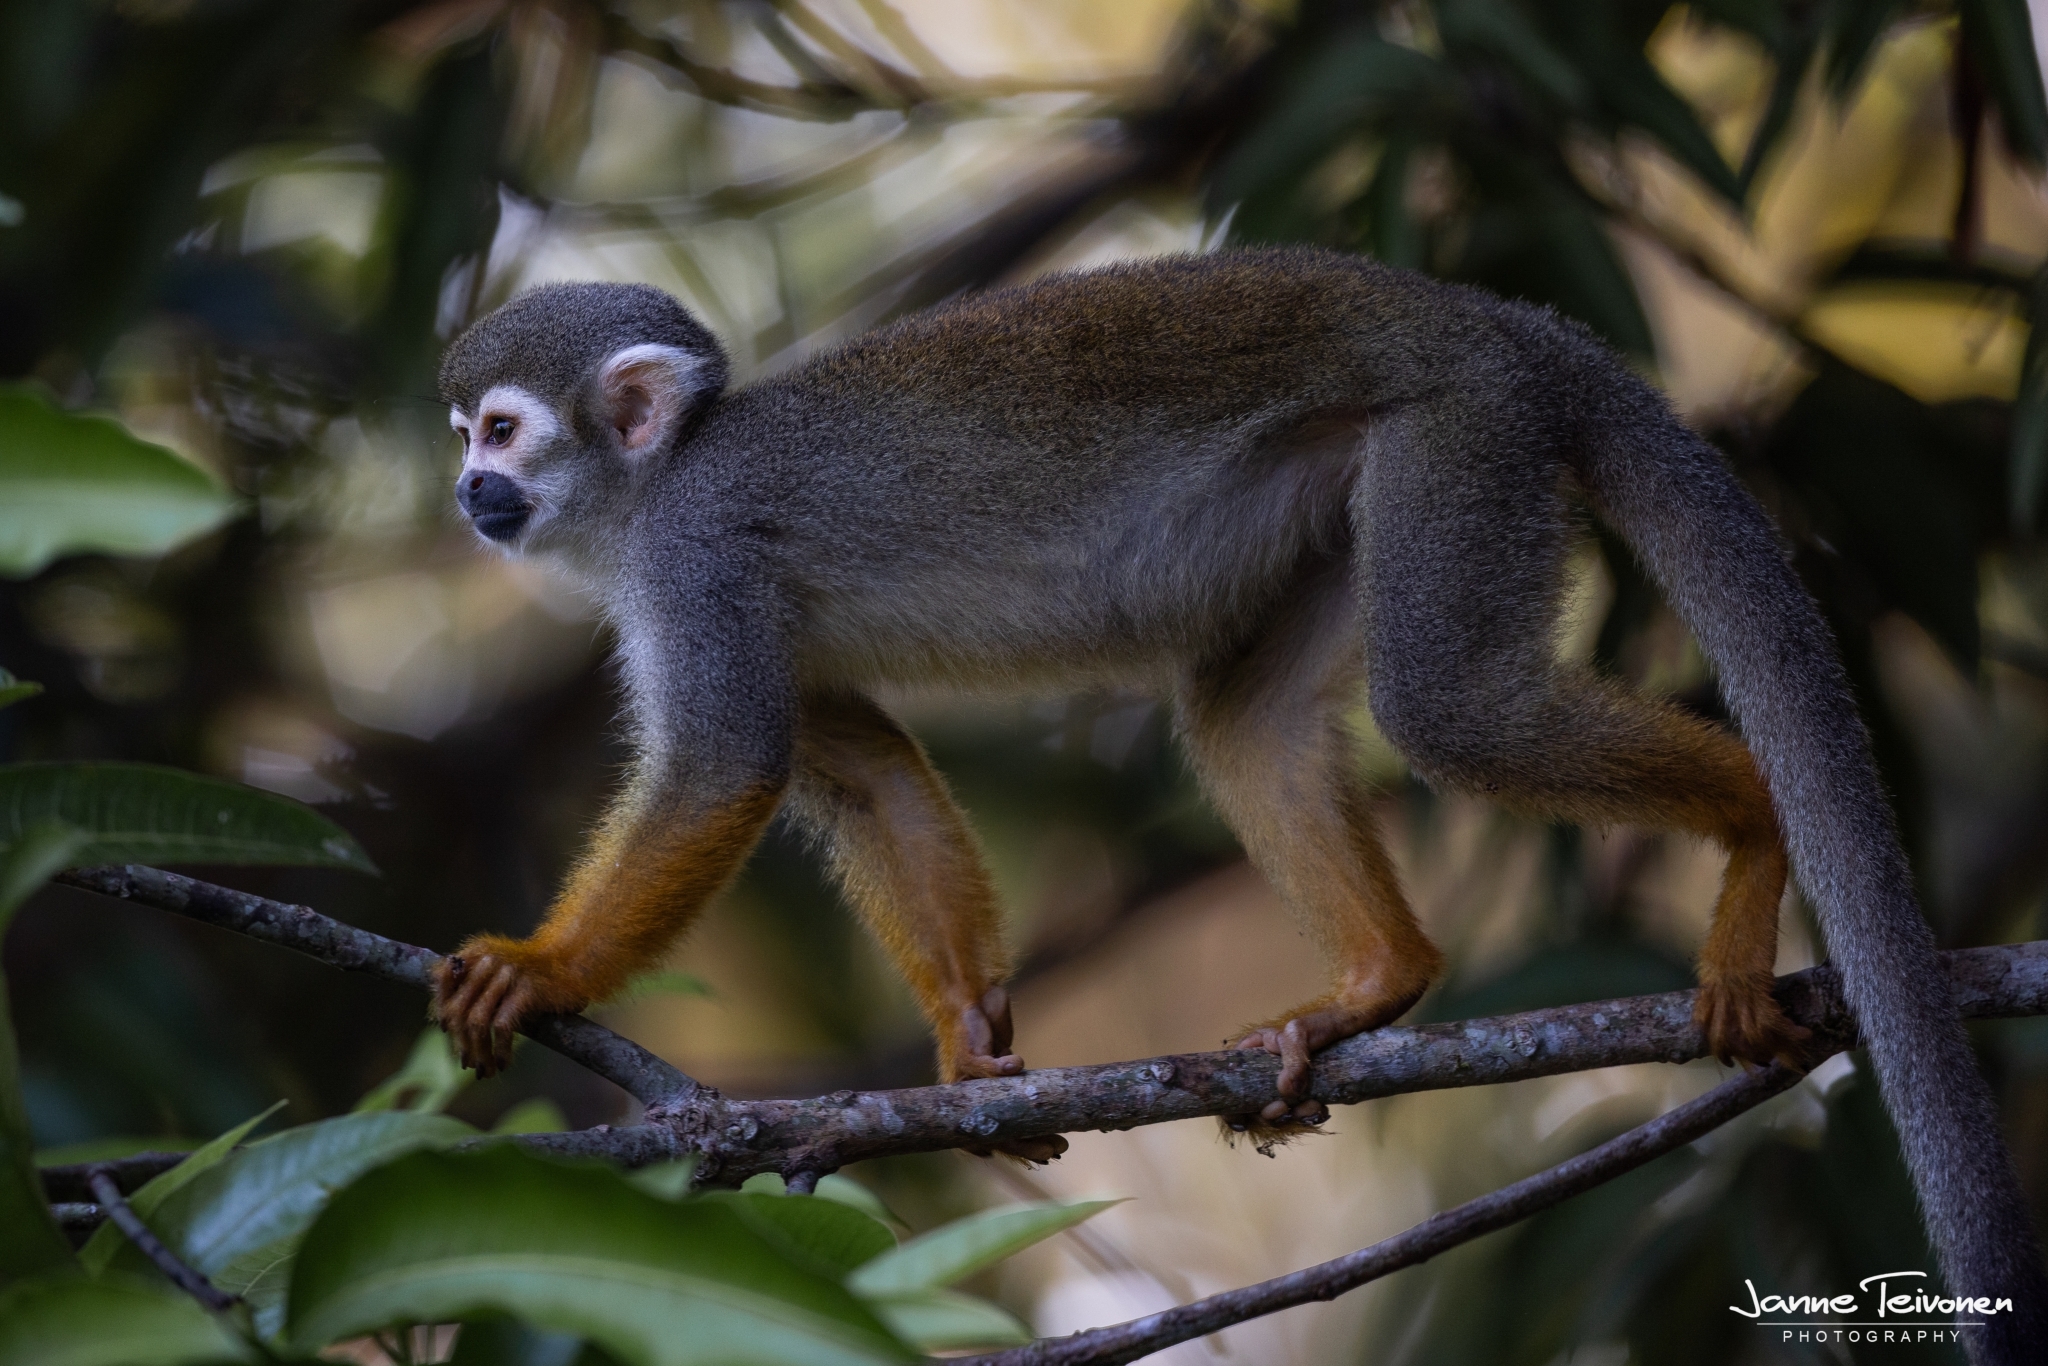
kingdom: Animalia
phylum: Chordata
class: Mammalia
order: Primates
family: Cebidae
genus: Saimiri
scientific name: Saimiri sciureus
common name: Common squirrel monkey
